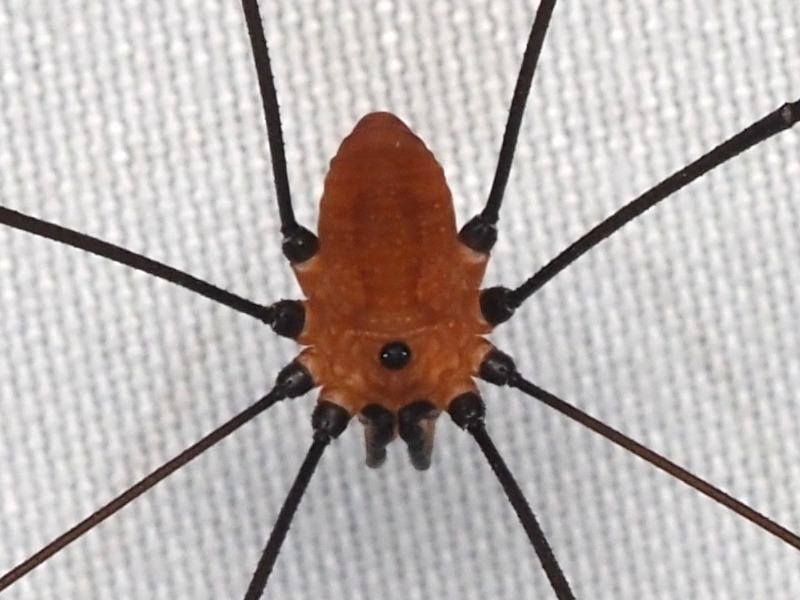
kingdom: Animalia
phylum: Arthropoda
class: Arachnida
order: Opiliones
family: Sclerosomatidae
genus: Leiobunum
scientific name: Leiobunum nigropalpi
